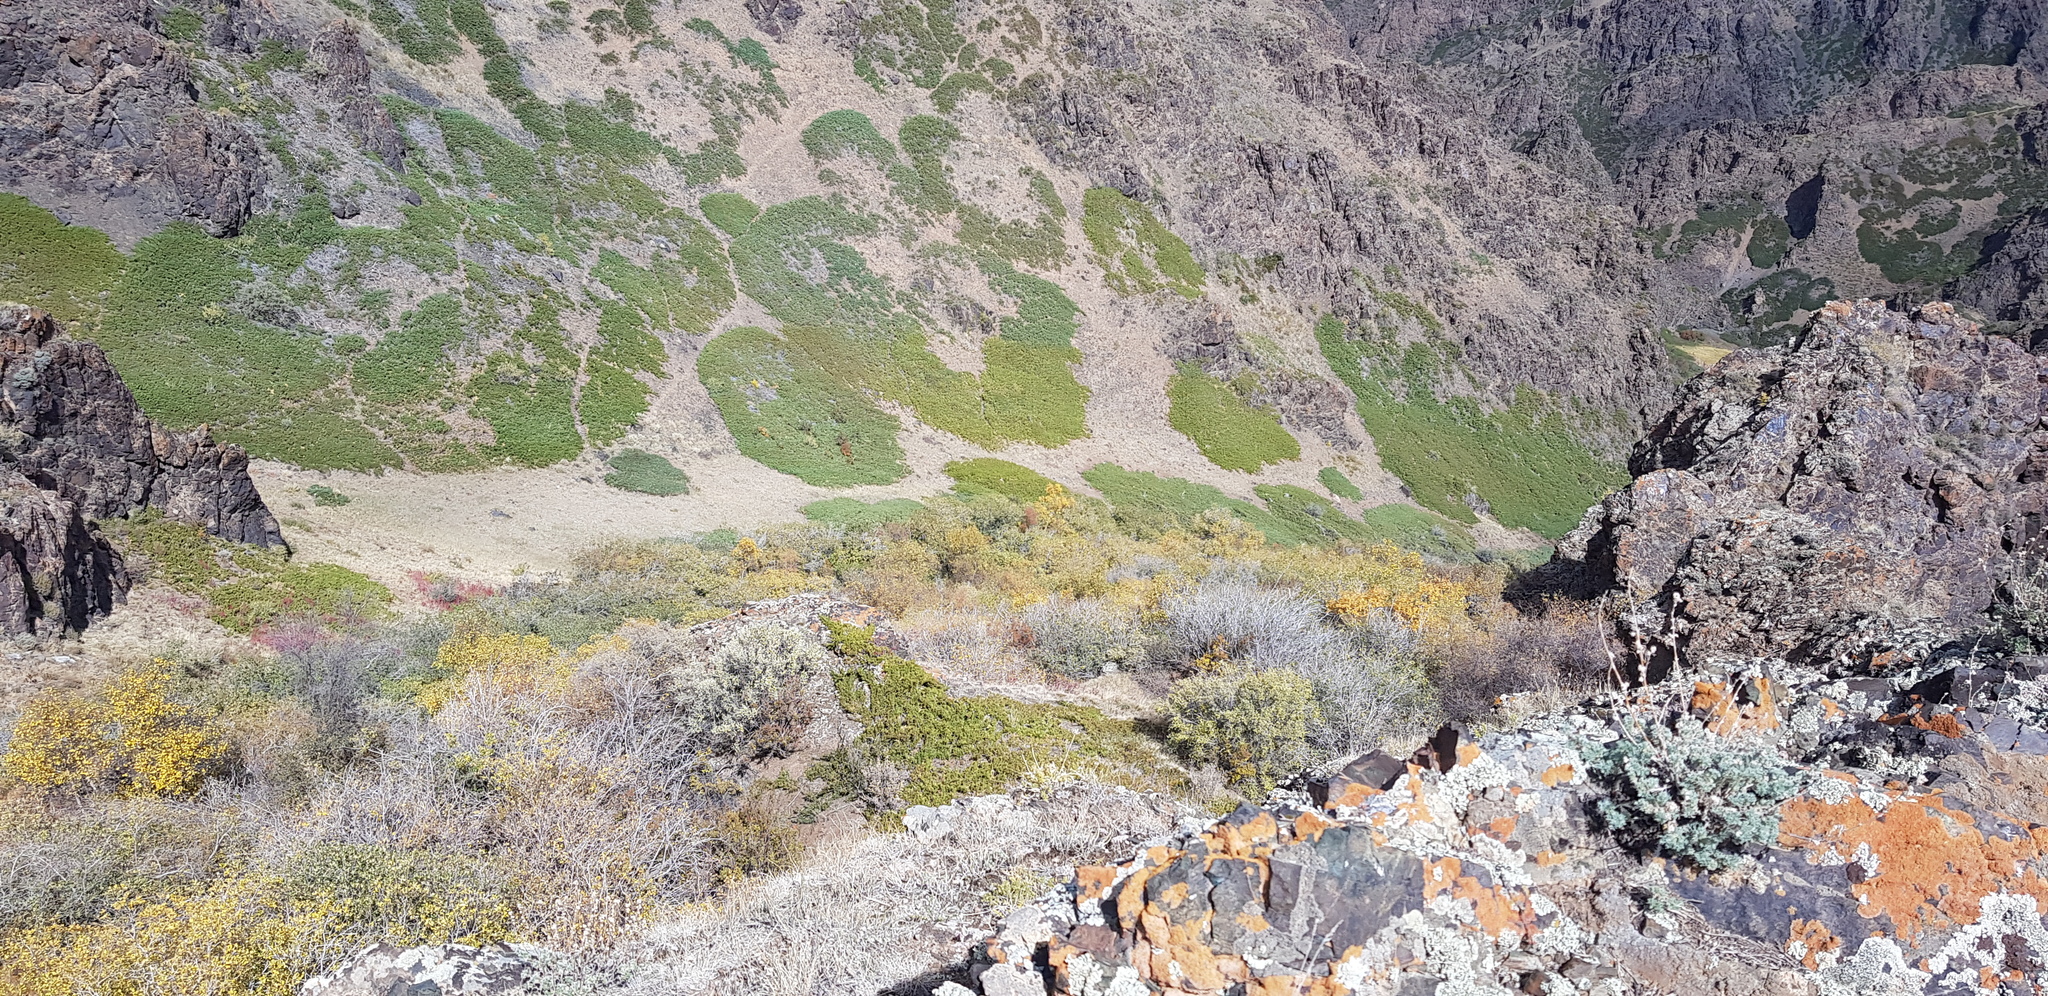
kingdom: Plantae
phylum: Tracheophyta
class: Pinopsida
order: Pinales
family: Cupressaceae
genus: Juniperus
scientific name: Juniperus sabina
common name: Savin
